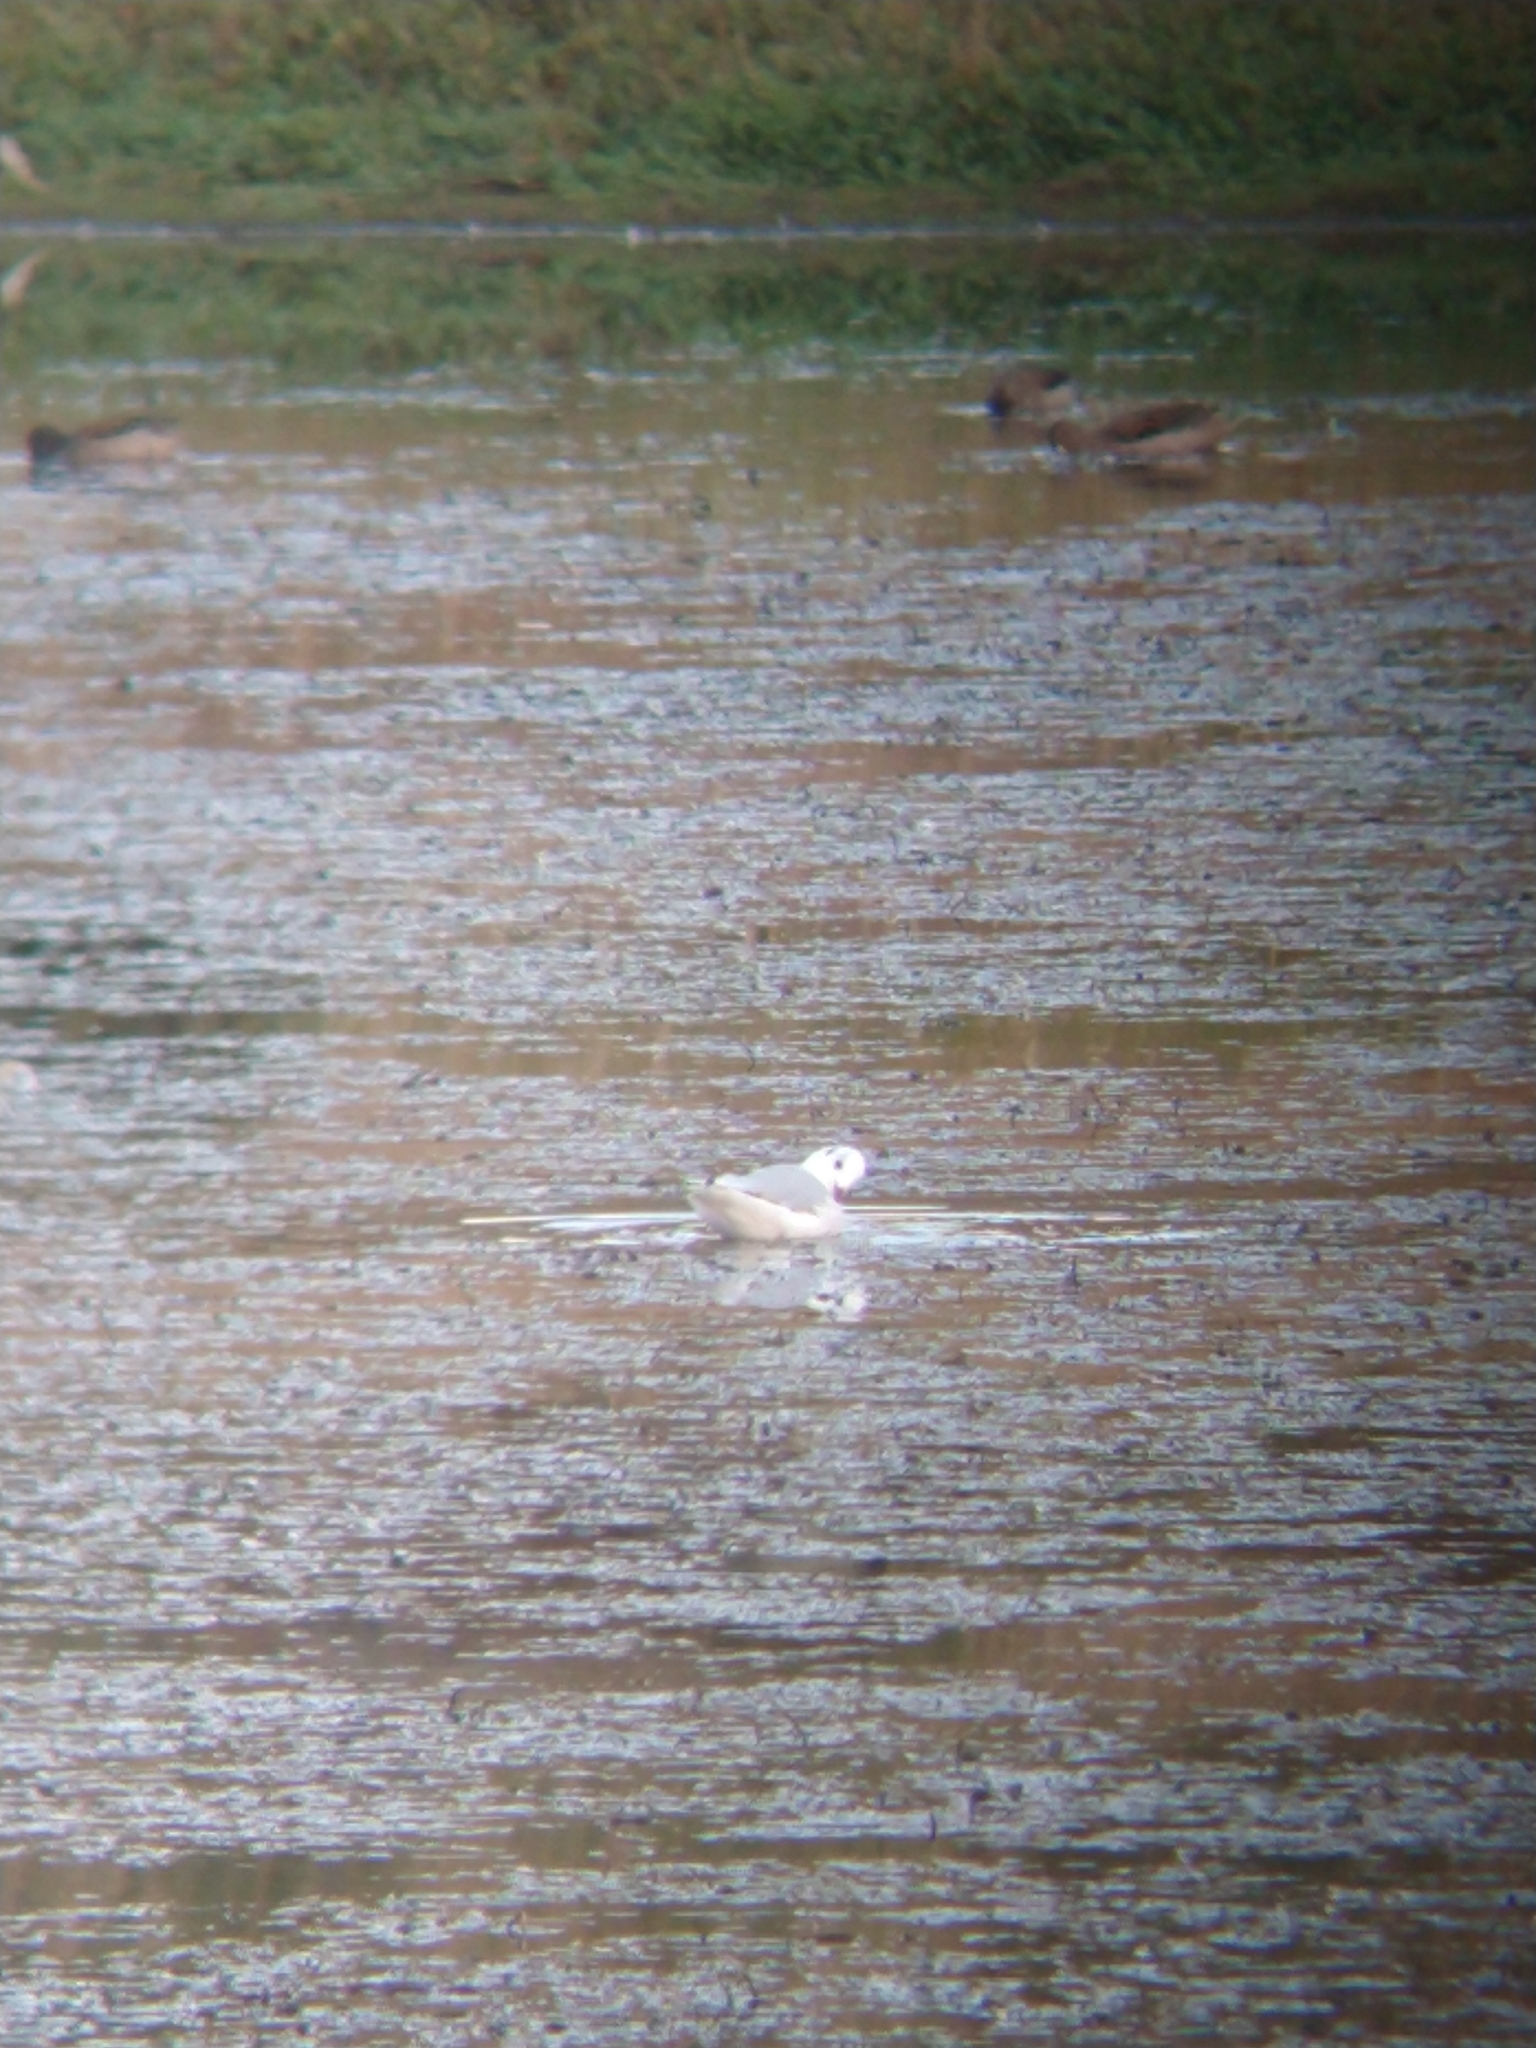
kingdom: Animalia
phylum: Chordata
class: Aves
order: Charadriiformes
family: Laridae
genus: Chroicocephalus
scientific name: Chroicocephalus maculipennis
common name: Brown-hooded gull
